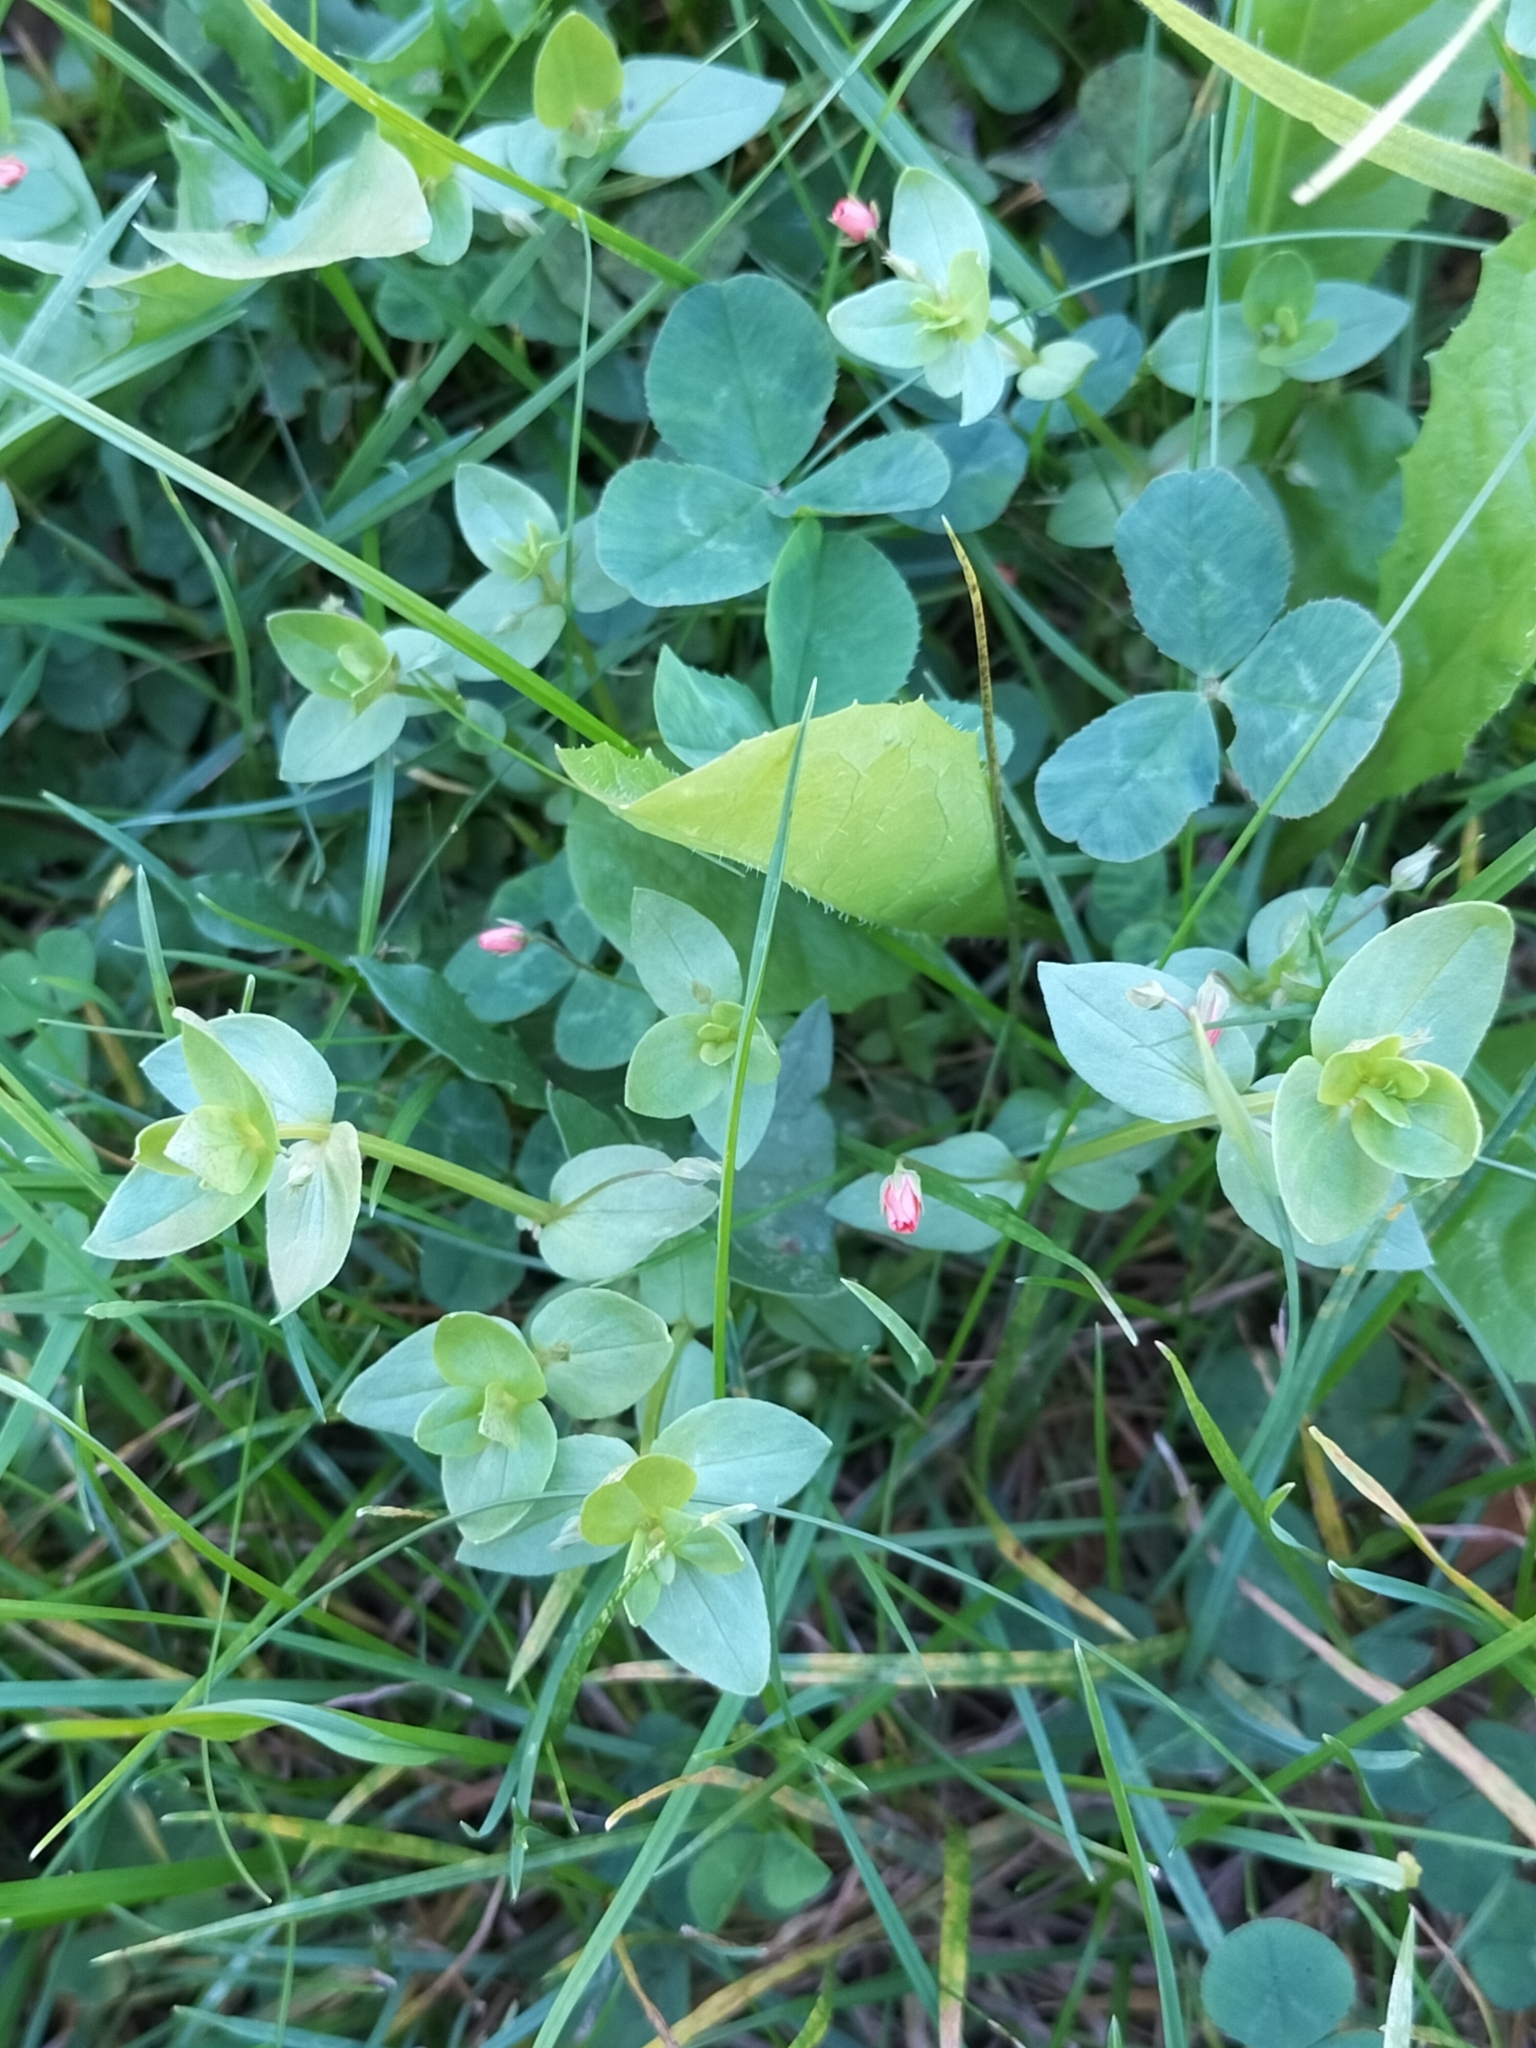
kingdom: Plantae
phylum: Tracheophyta
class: Magnoliopsida
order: Ericales
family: Primulaceae
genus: Lysimachia
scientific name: Lysimachia arvensis
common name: Scarlet pimpernel
